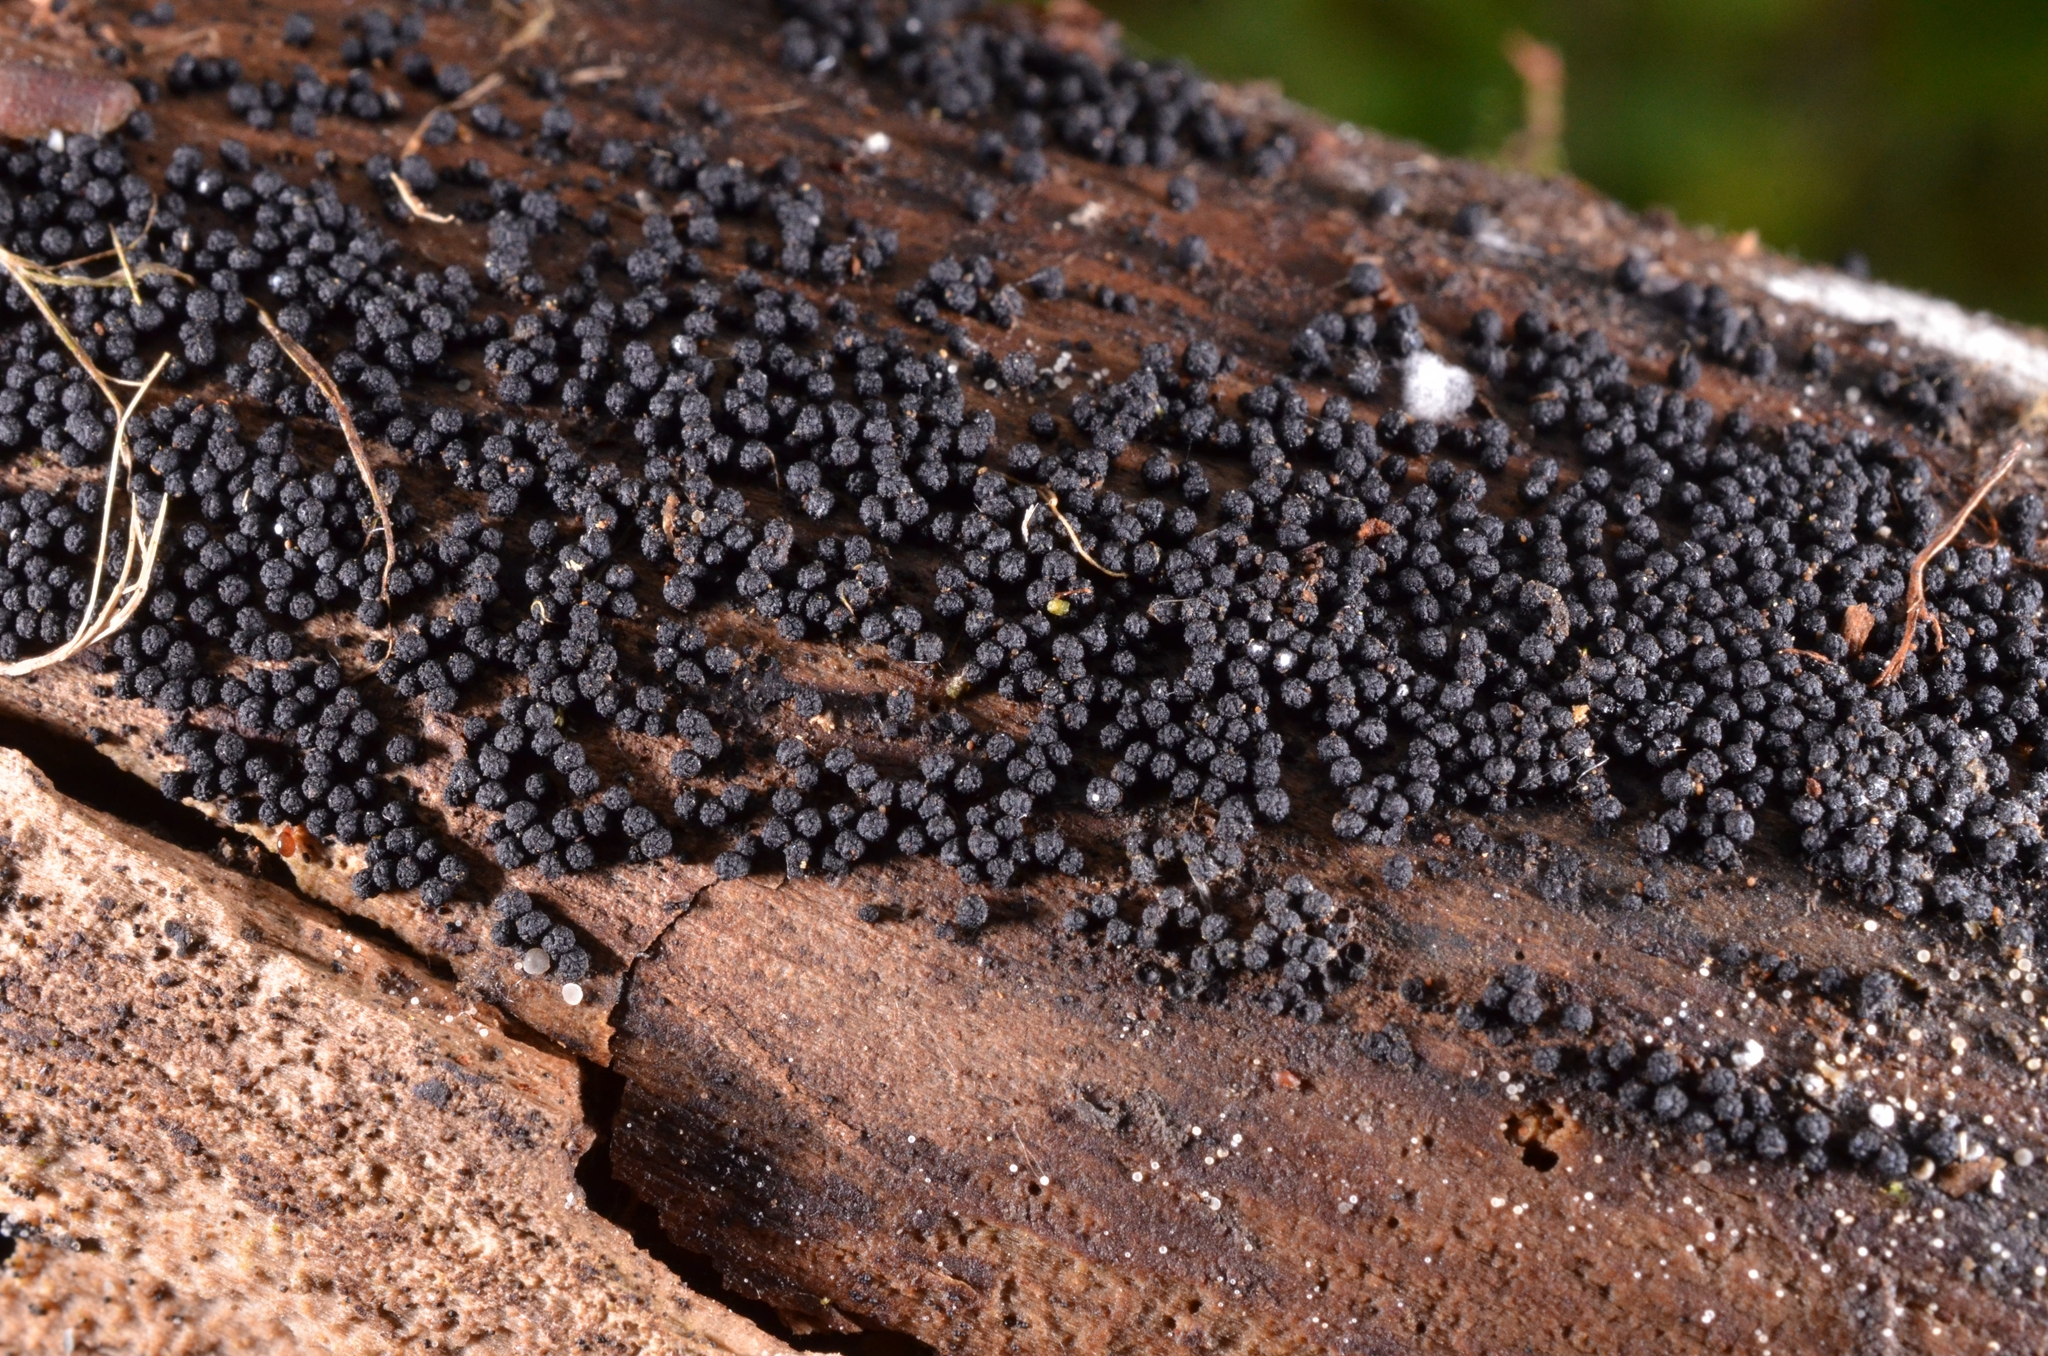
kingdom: Fungi
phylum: Ascomycota
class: Sordariomycetes
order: Coronophorales
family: Bertiaceae
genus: Bertia
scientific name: Bertia moriformis
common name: Wood mulberry
